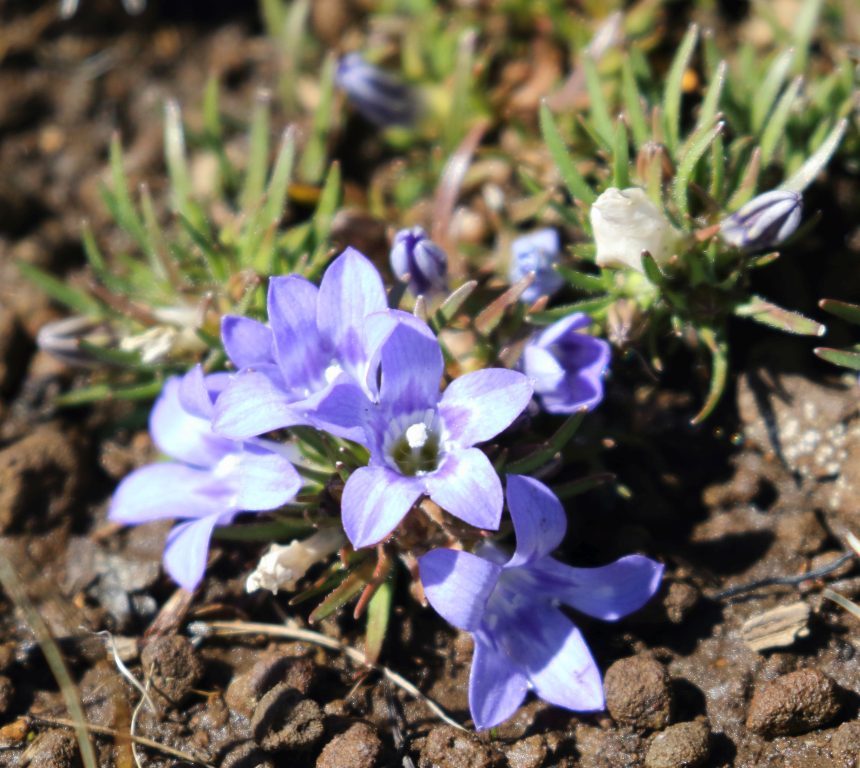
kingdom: Plantae
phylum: Tracheophyta
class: Magnoliopsida
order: Asterales
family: Campanulaceae
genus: Wahlenbergia
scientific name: Wahlenbergia polytrichifolia
